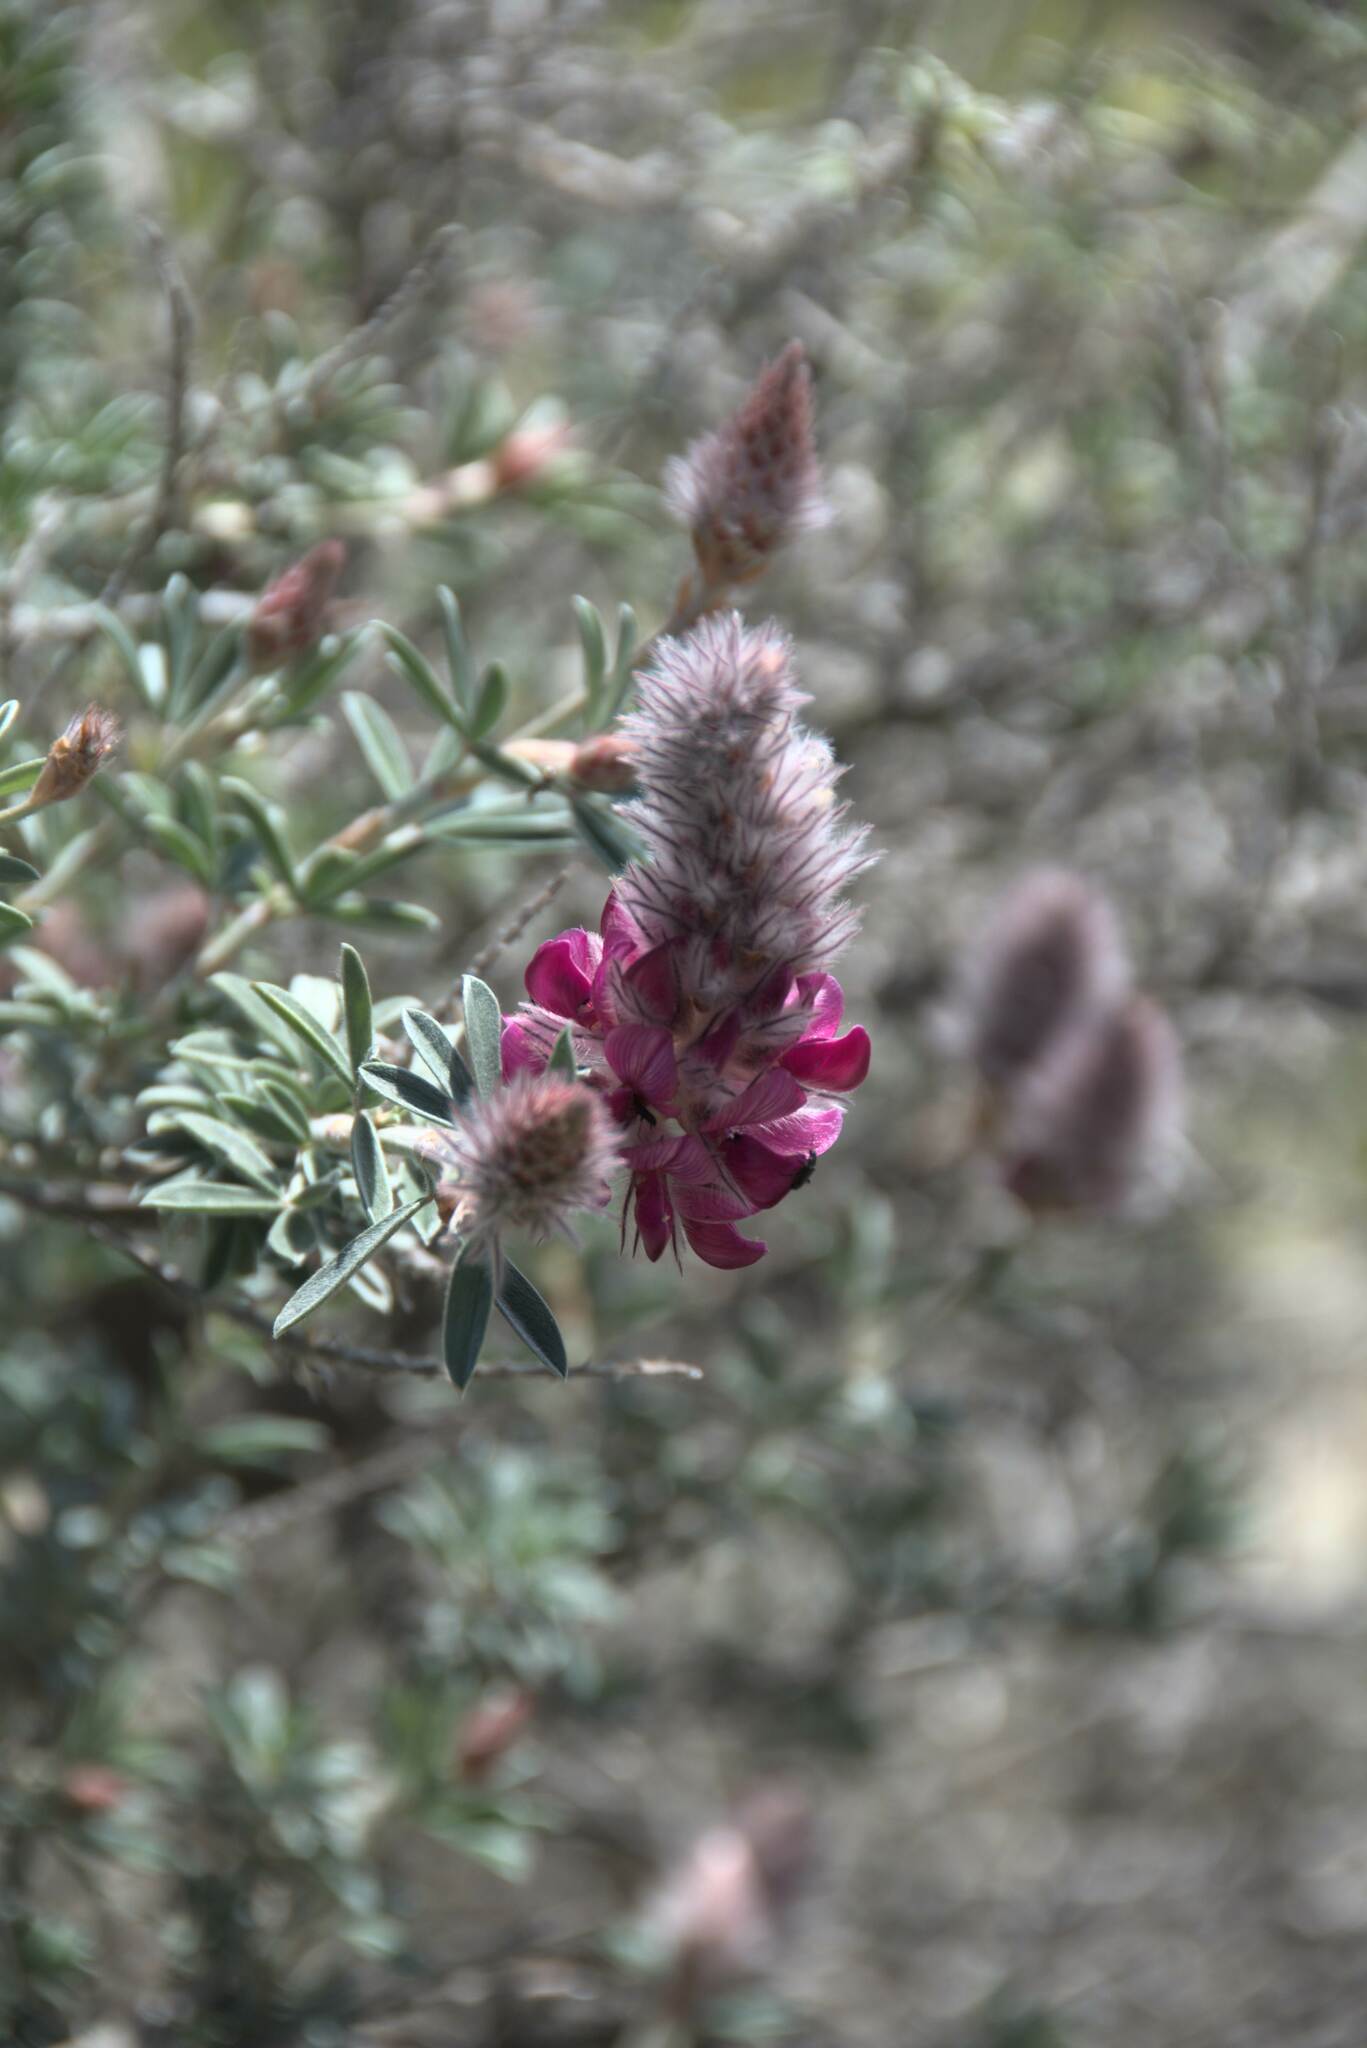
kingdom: Plantae
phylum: Tracheophyta
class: Magnoliopsida
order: Fabales
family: Fabaceae
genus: Ebenus
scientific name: Ebenus cretica
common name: Cretan silver bush
